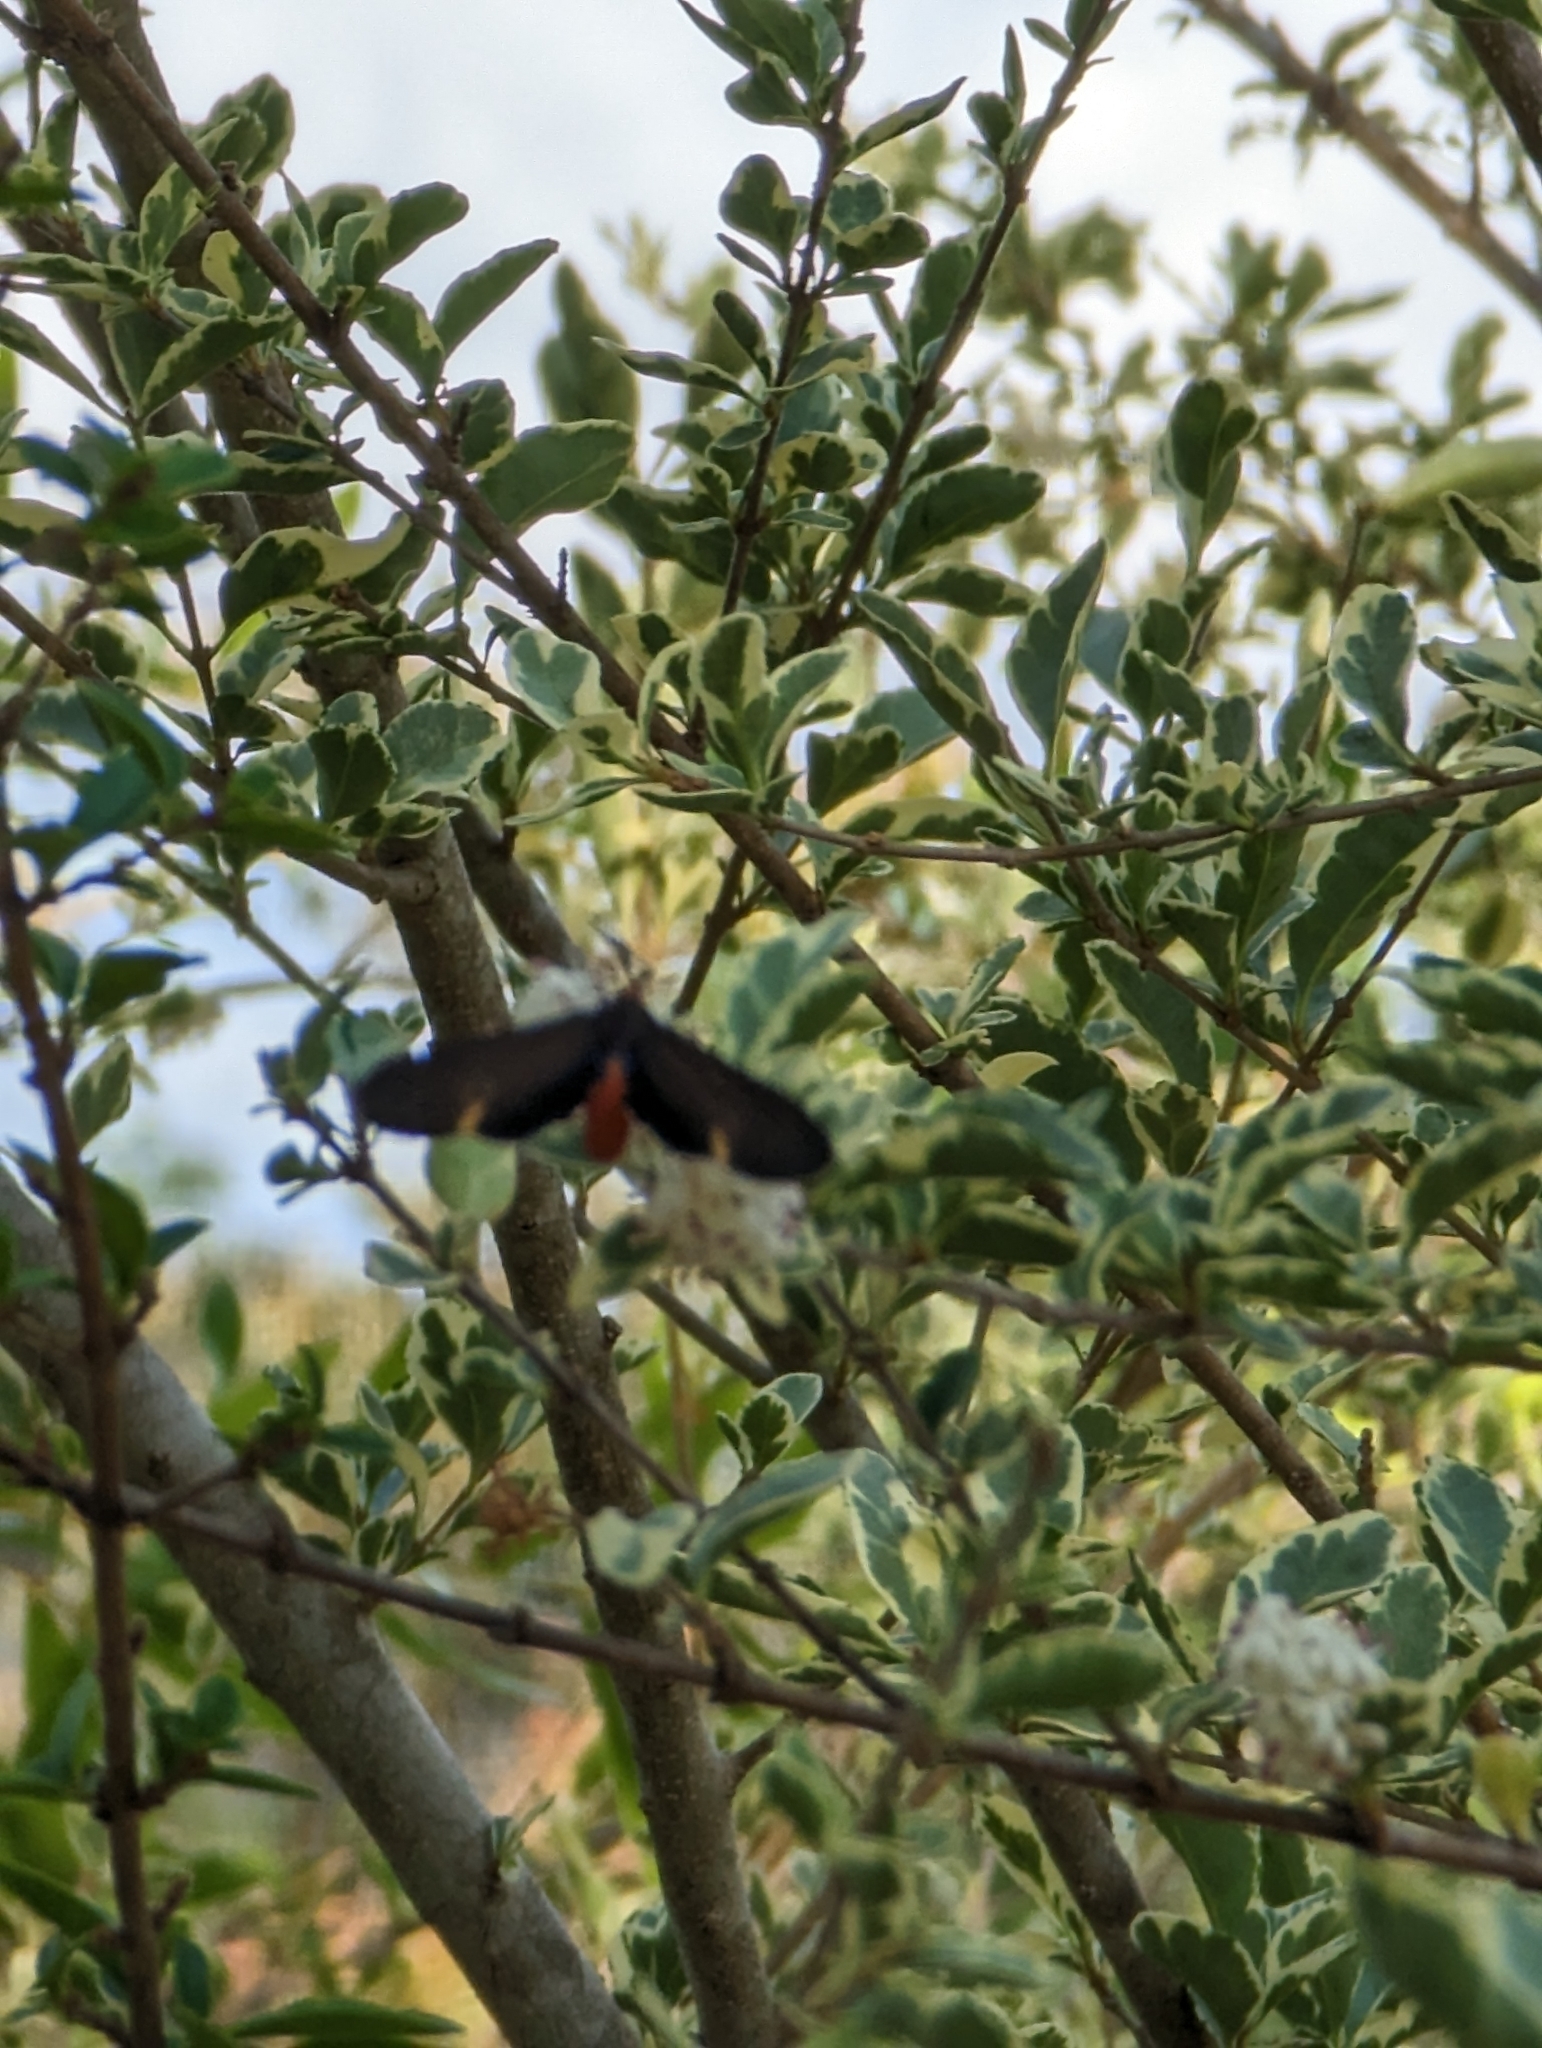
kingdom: Animalia
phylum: Arthropoda
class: Insecta
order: Lepidoptera
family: Erebidae
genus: Dahana
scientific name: Dahana atripennis
